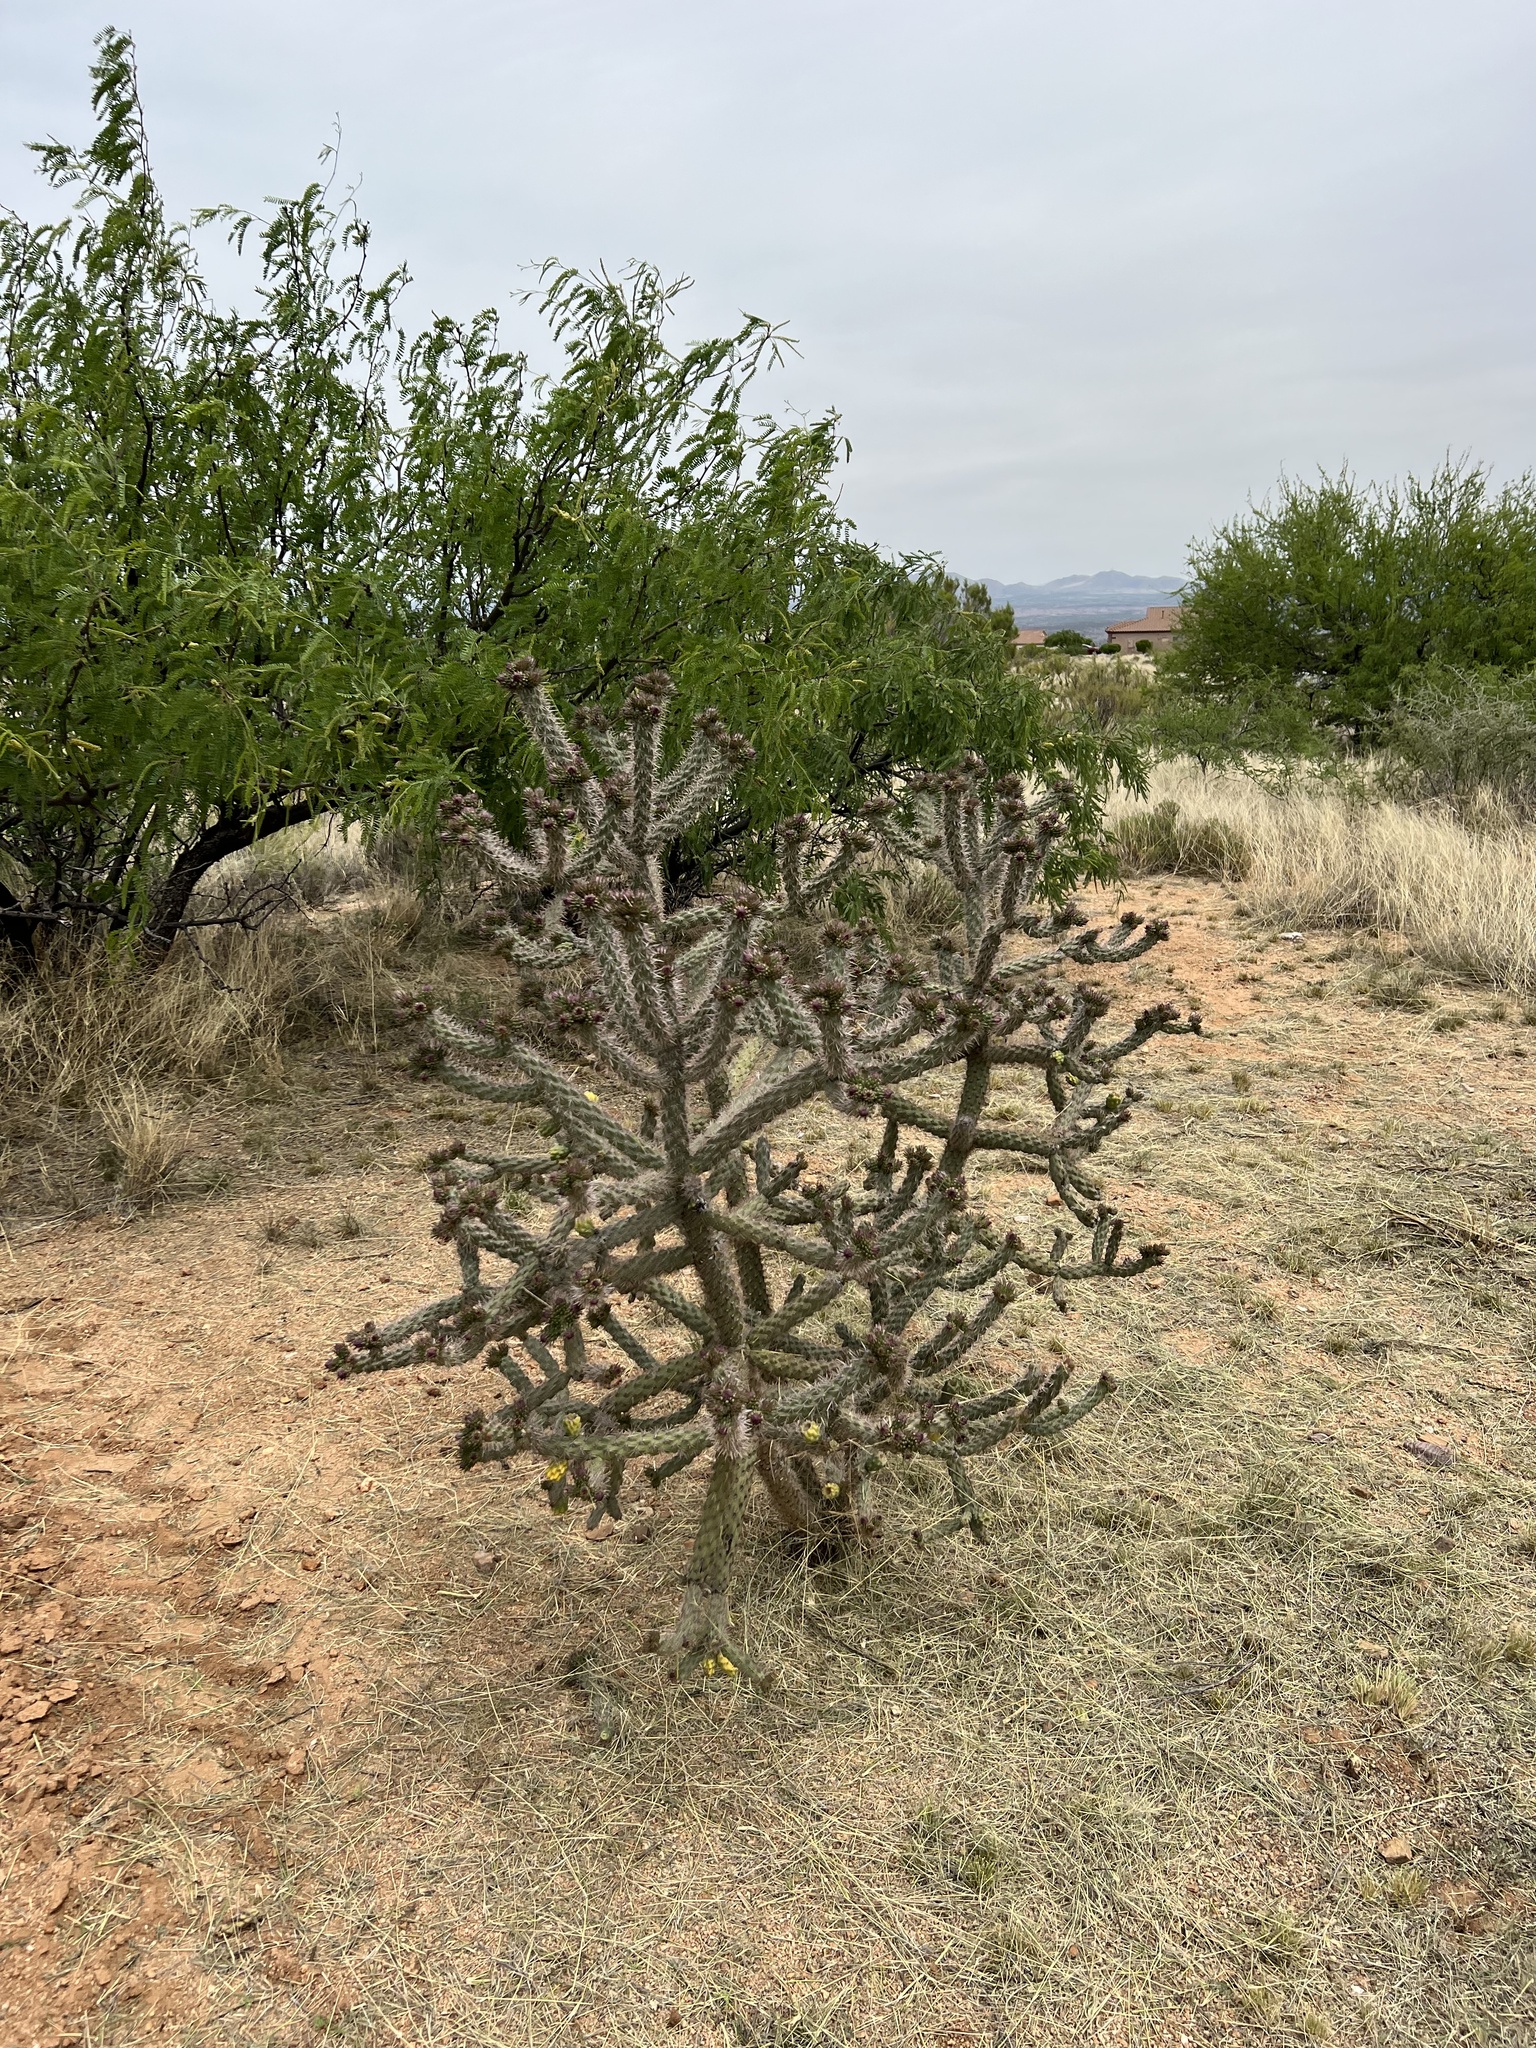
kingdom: Plantae
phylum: Tracheophyta
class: Magnoliopsida
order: Caryophyllales
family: Cactaceae
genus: Cylindropuntia
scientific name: Cylindropuntia imbricata
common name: Candelabrum cactus
